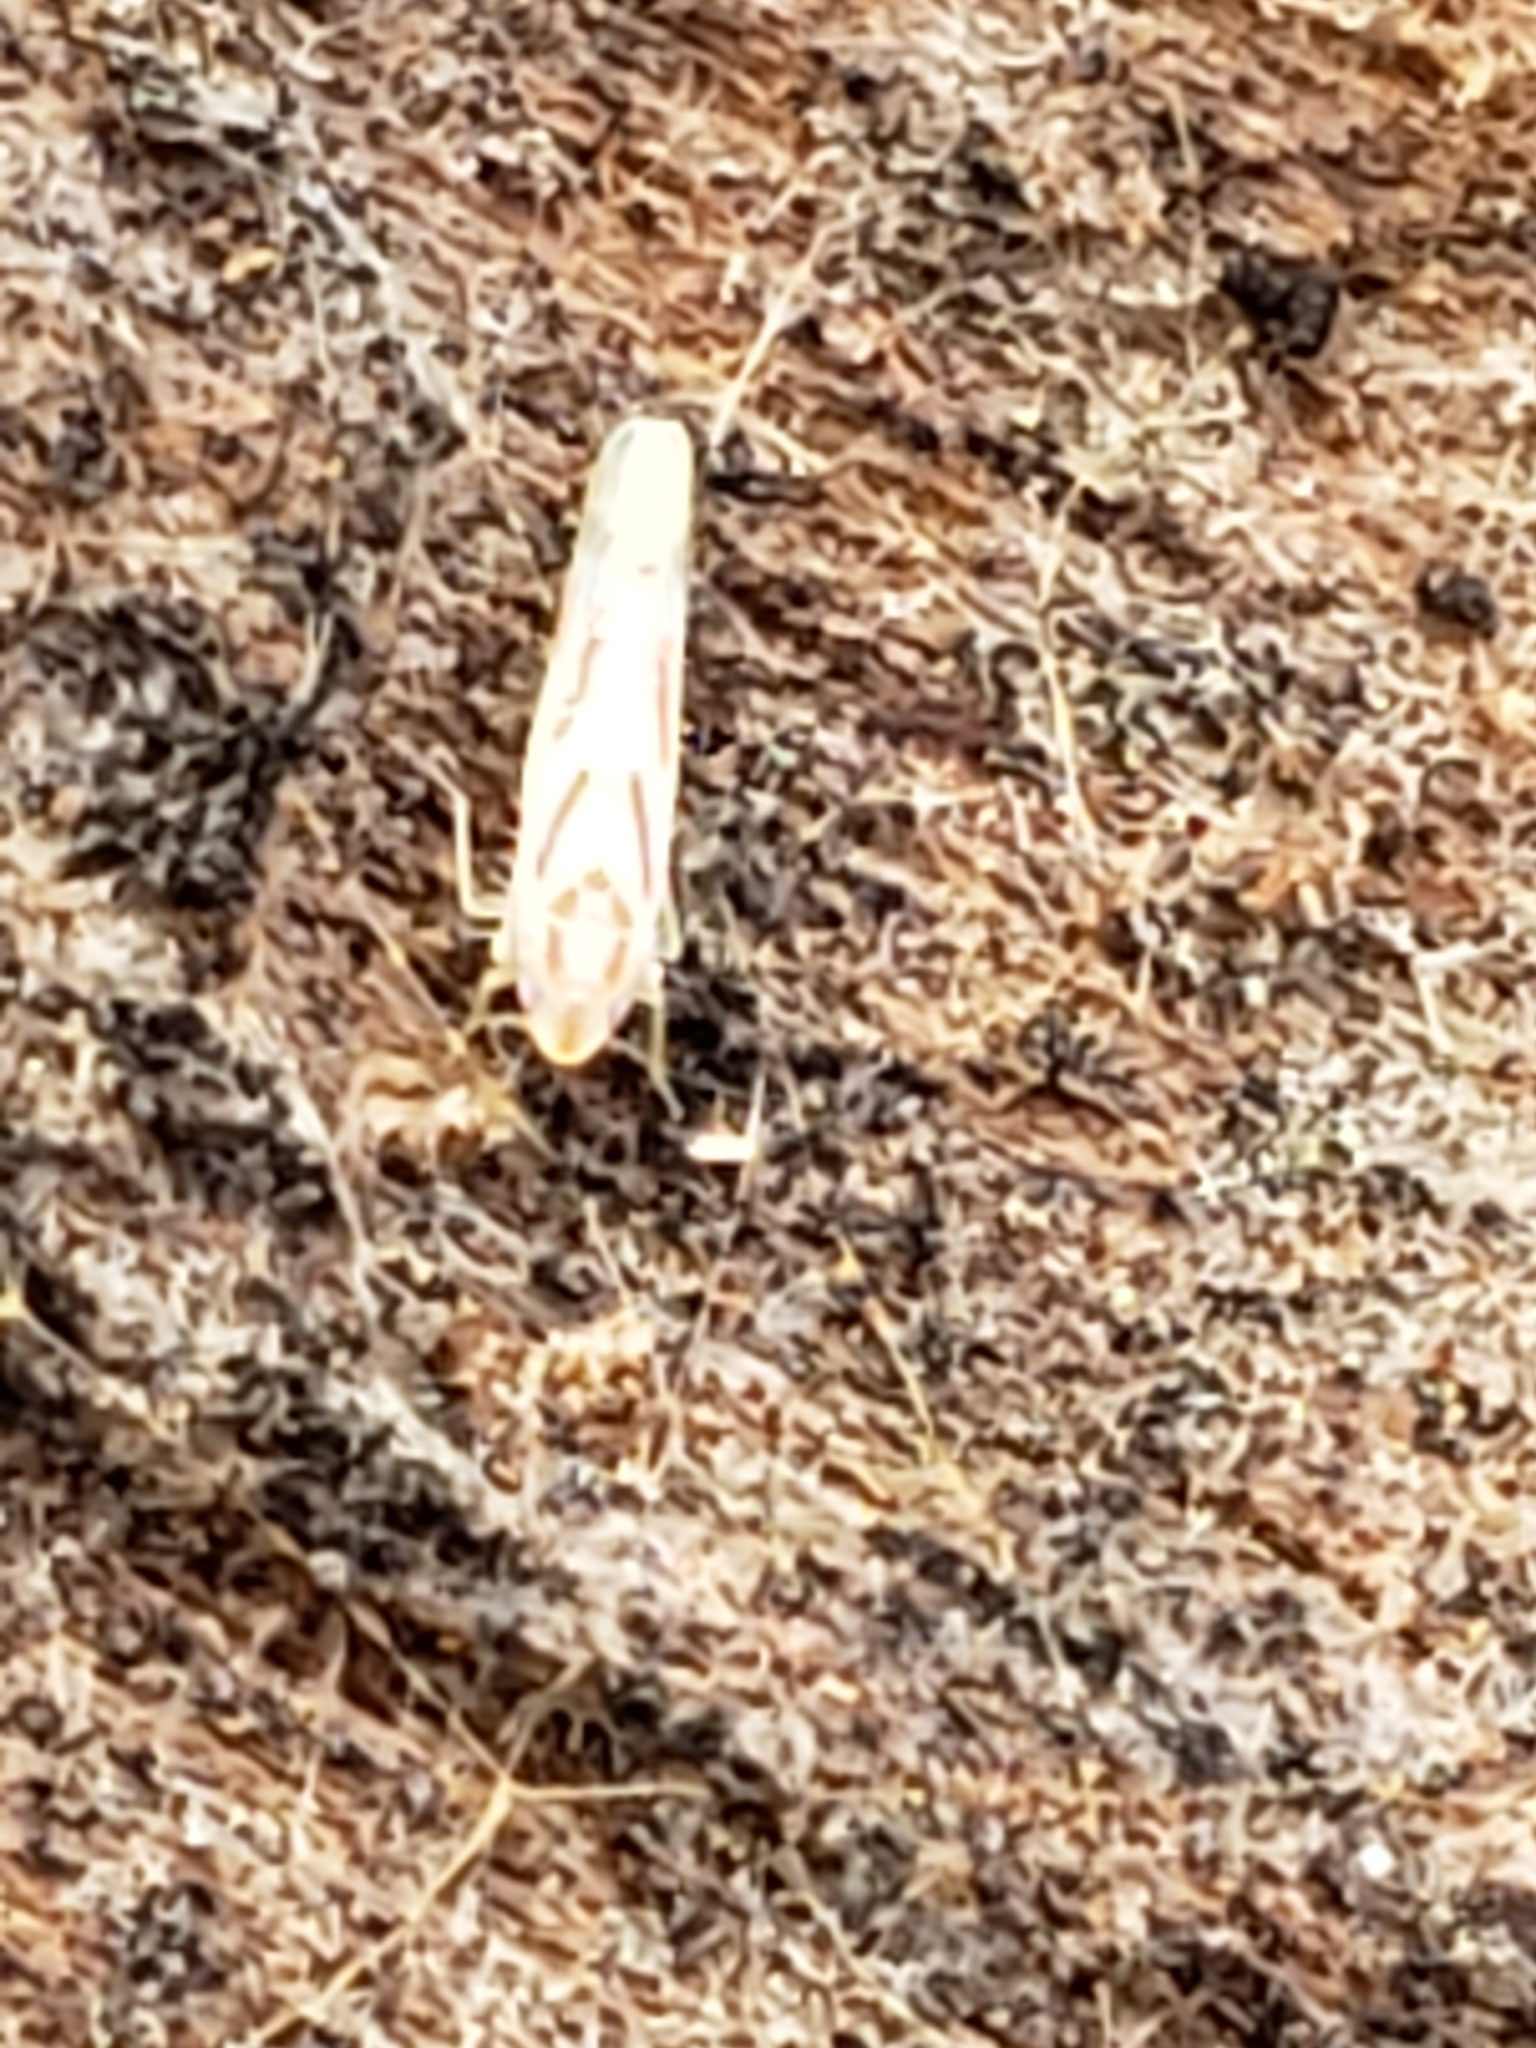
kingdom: Animalia
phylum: Arthropoda
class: Insecta
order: Hemiptera
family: Cicadellidae
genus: Dikrella
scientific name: Dikrella cruentata
